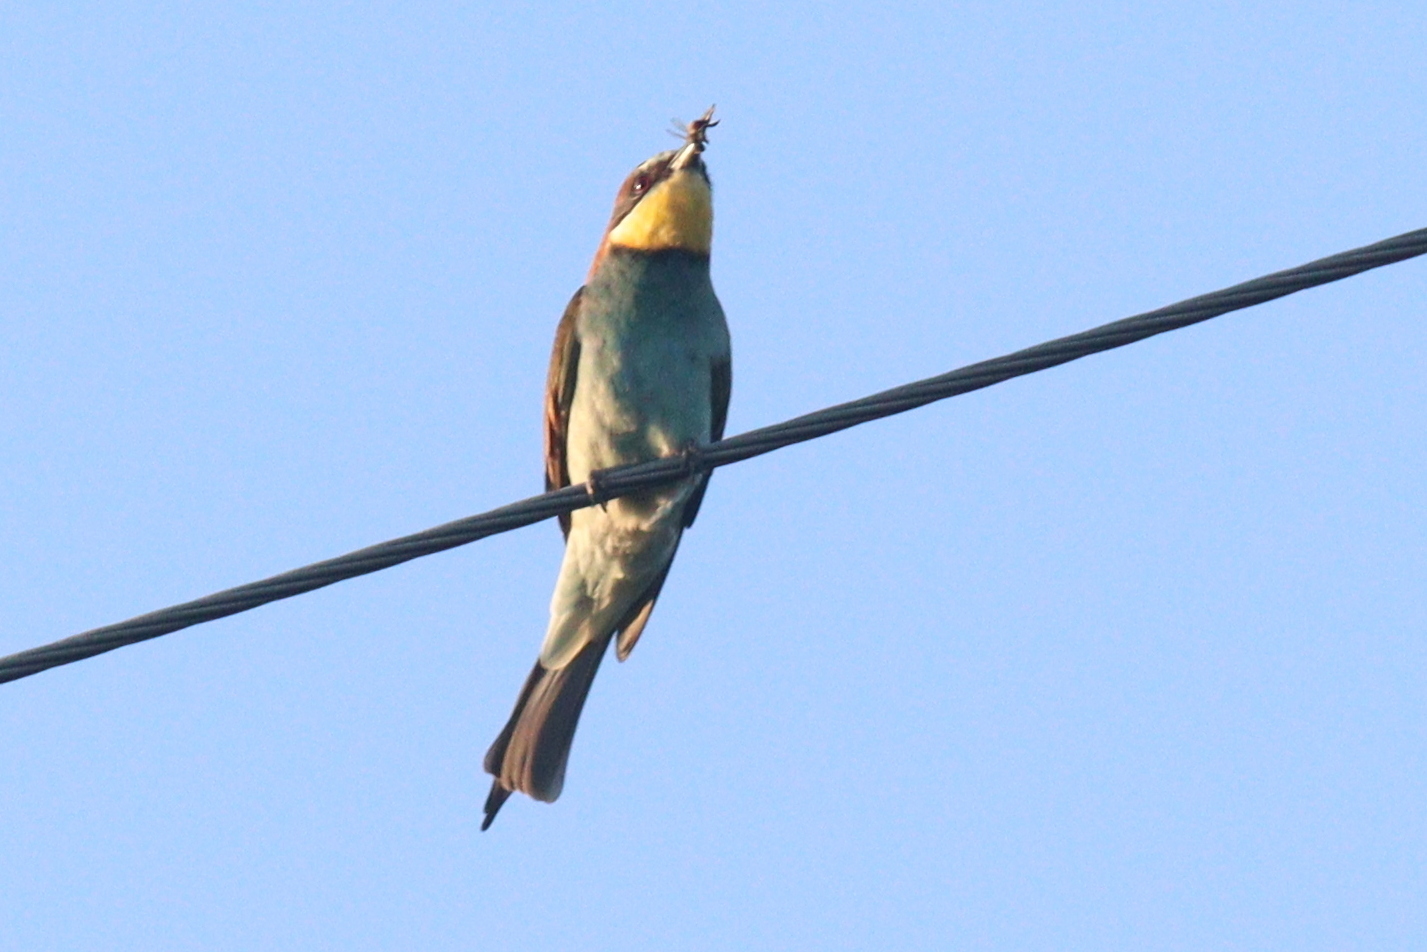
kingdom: Animalia
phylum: Chordata
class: Aves
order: Coraciiformes
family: Meropidae
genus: Merops
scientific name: Merops apiaster
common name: European bee-eater
